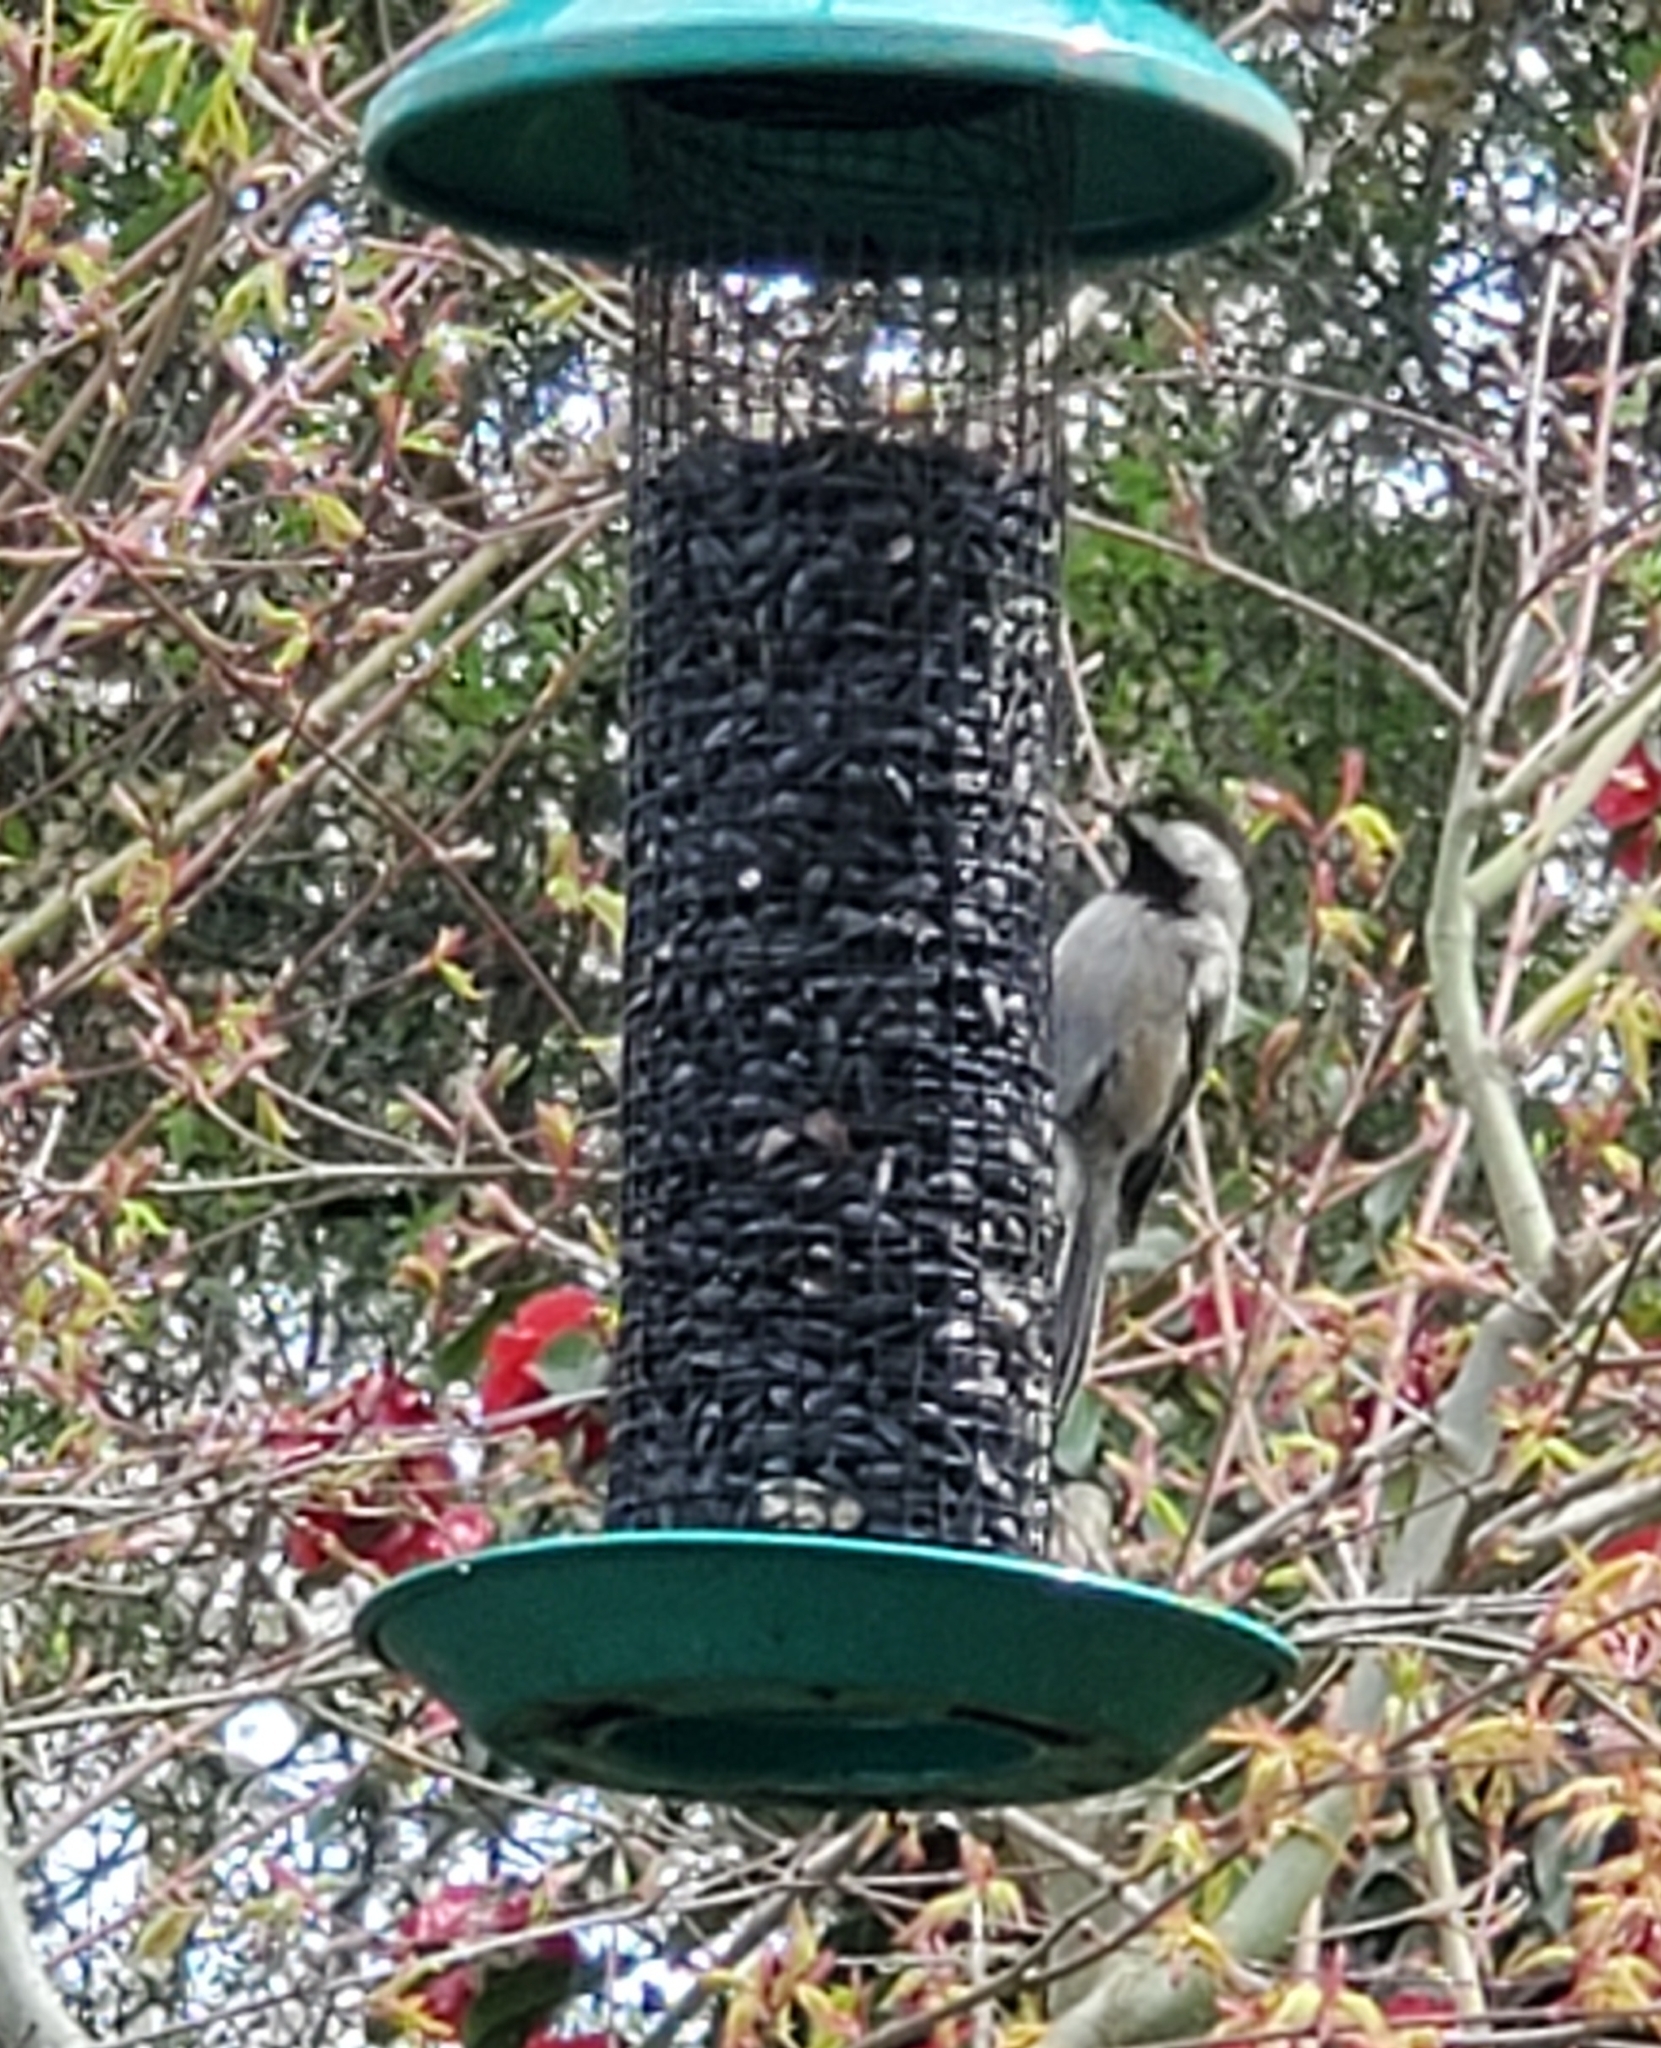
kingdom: Animalia
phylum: Chordata
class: Aves
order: Passeriformes
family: Paridae
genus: Poecile
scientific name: Poecile atricapillus
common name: Black-capped chickadee
